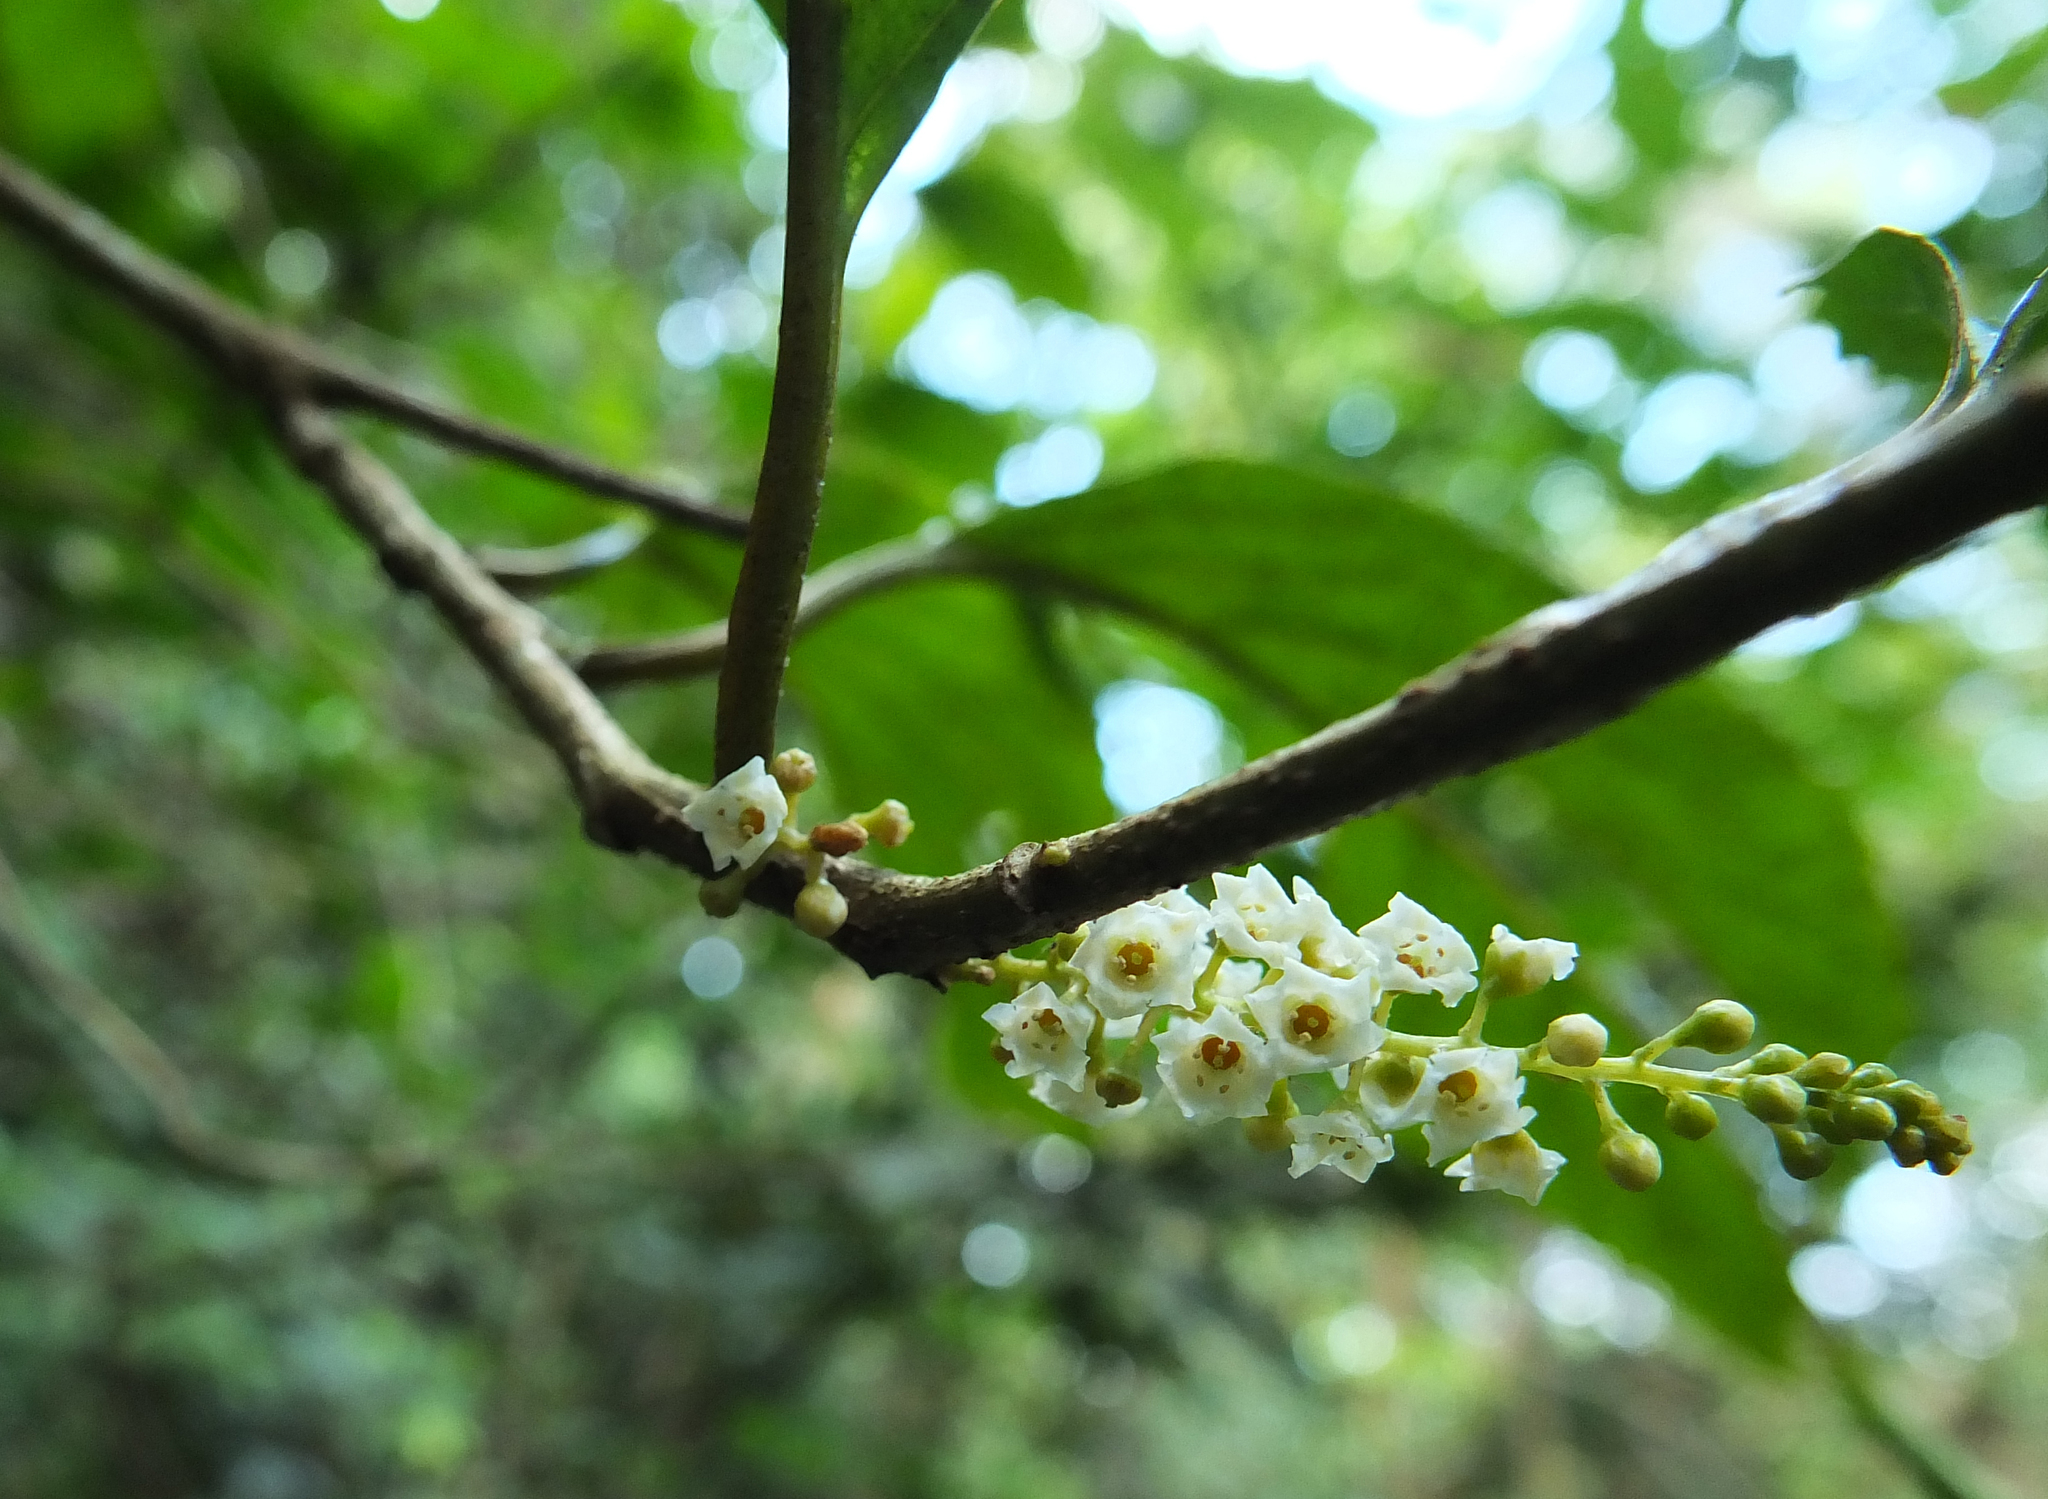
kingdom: Plantae
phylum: Tracheophyta
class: Magnoliopsida
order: Ericales
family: Primulaceae
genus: Maesa
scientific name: Maesa indica
